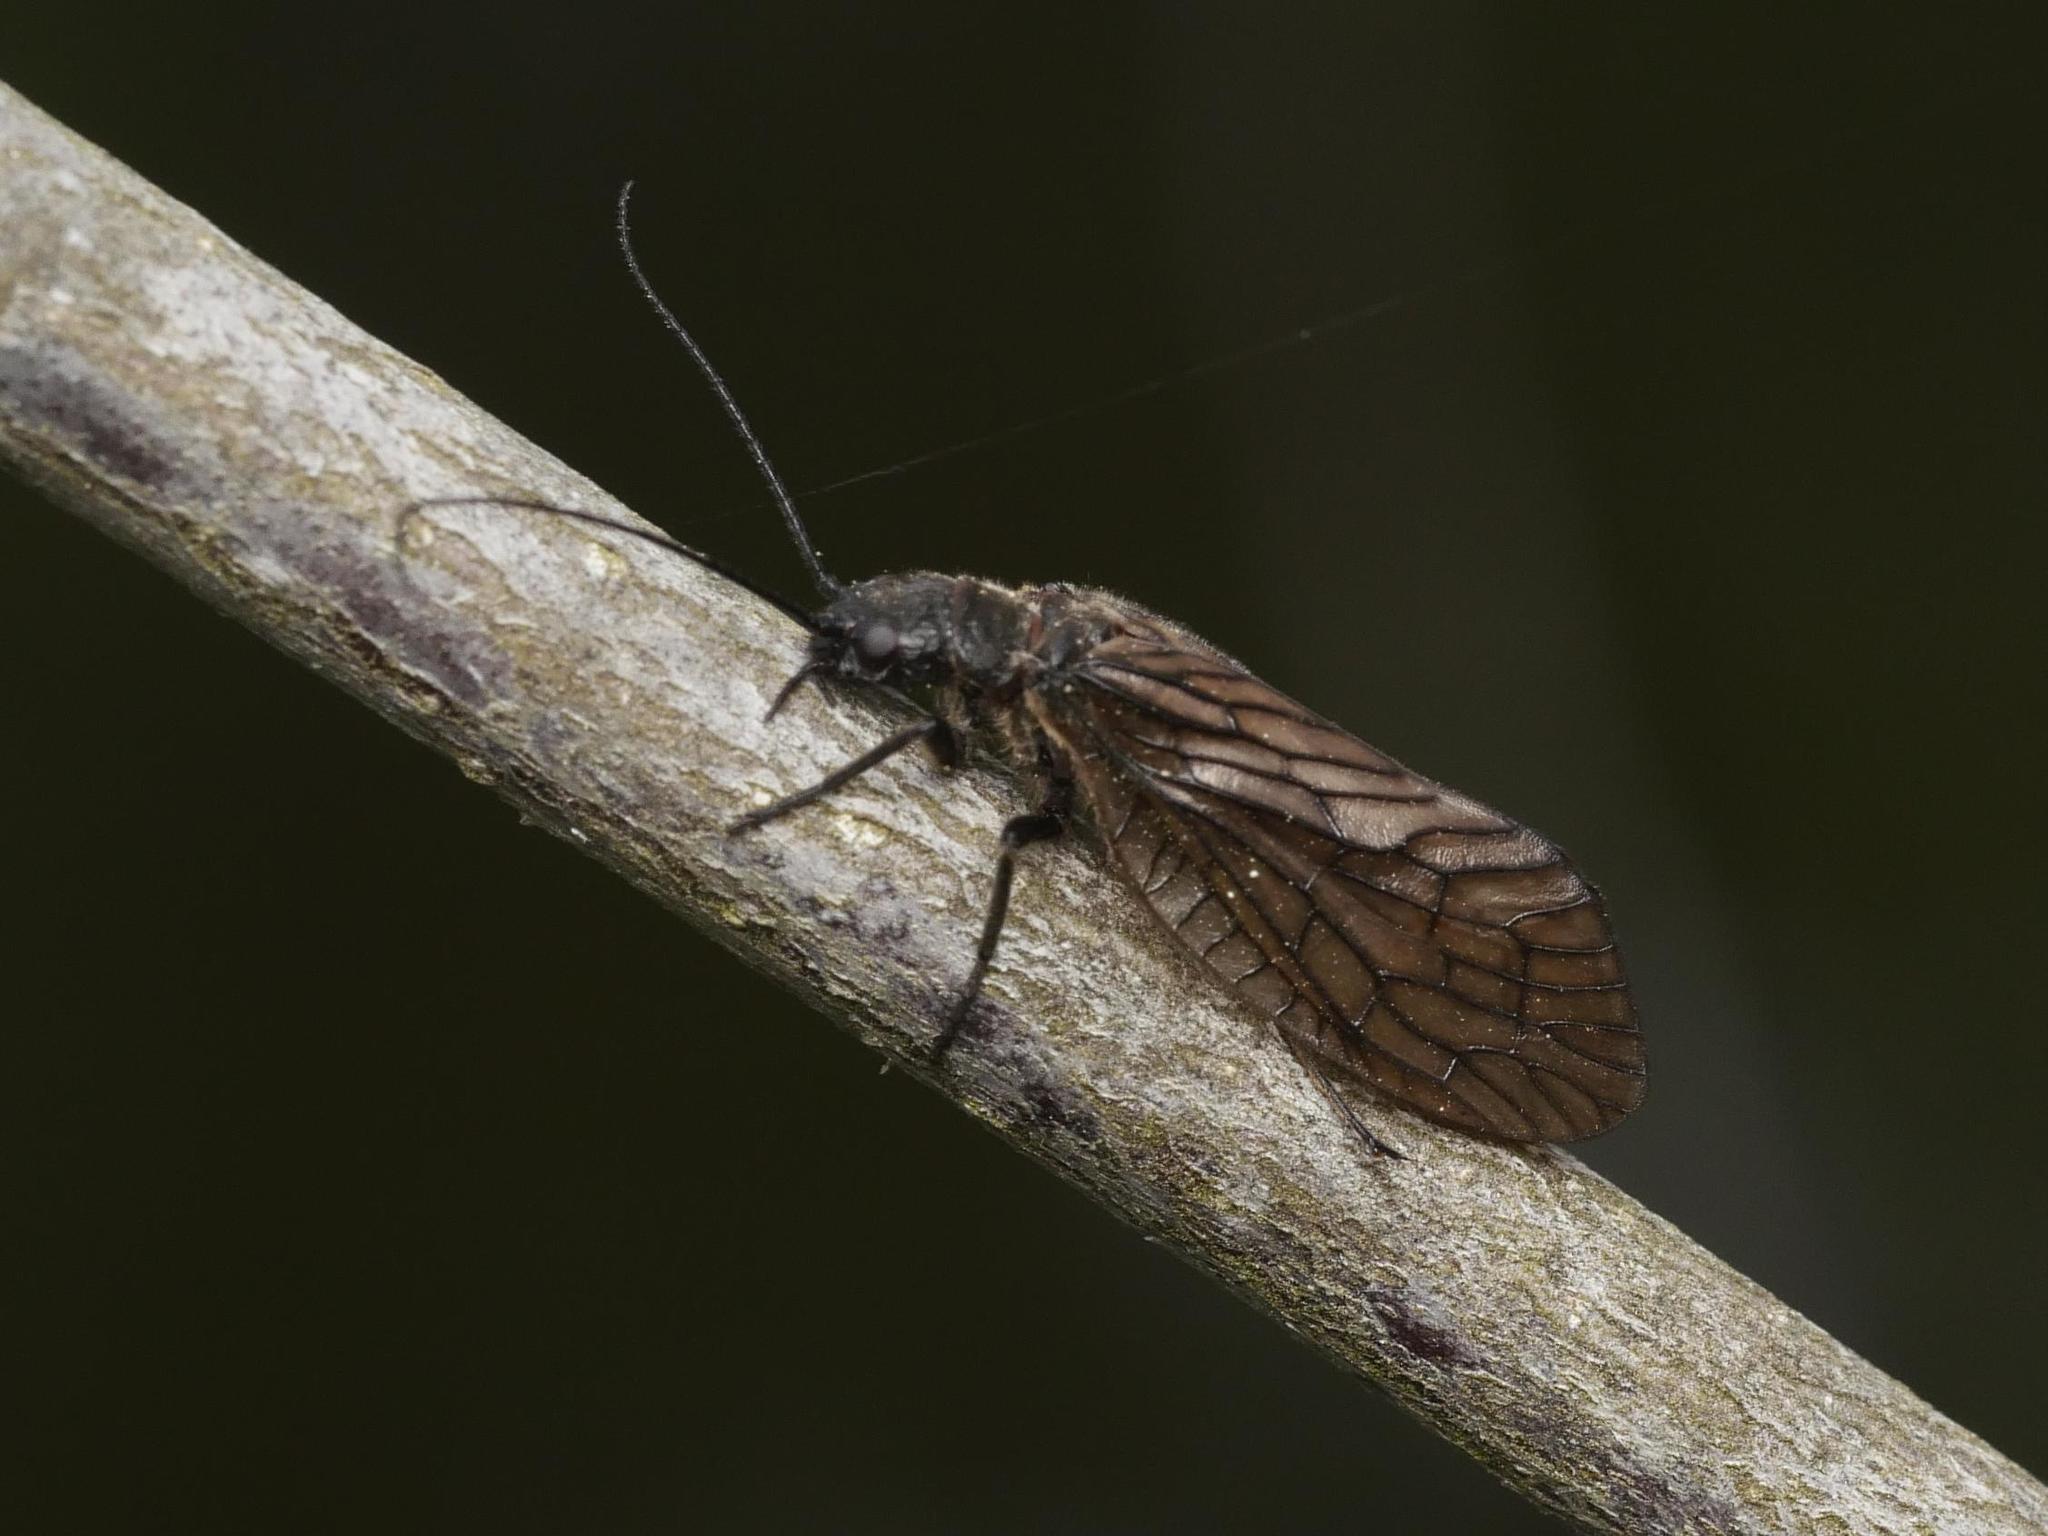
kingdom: Animalia
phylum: Arthropoda
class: Insecta
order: Megaloptera
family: Sialidae
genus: Sialis
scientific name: Sialis
